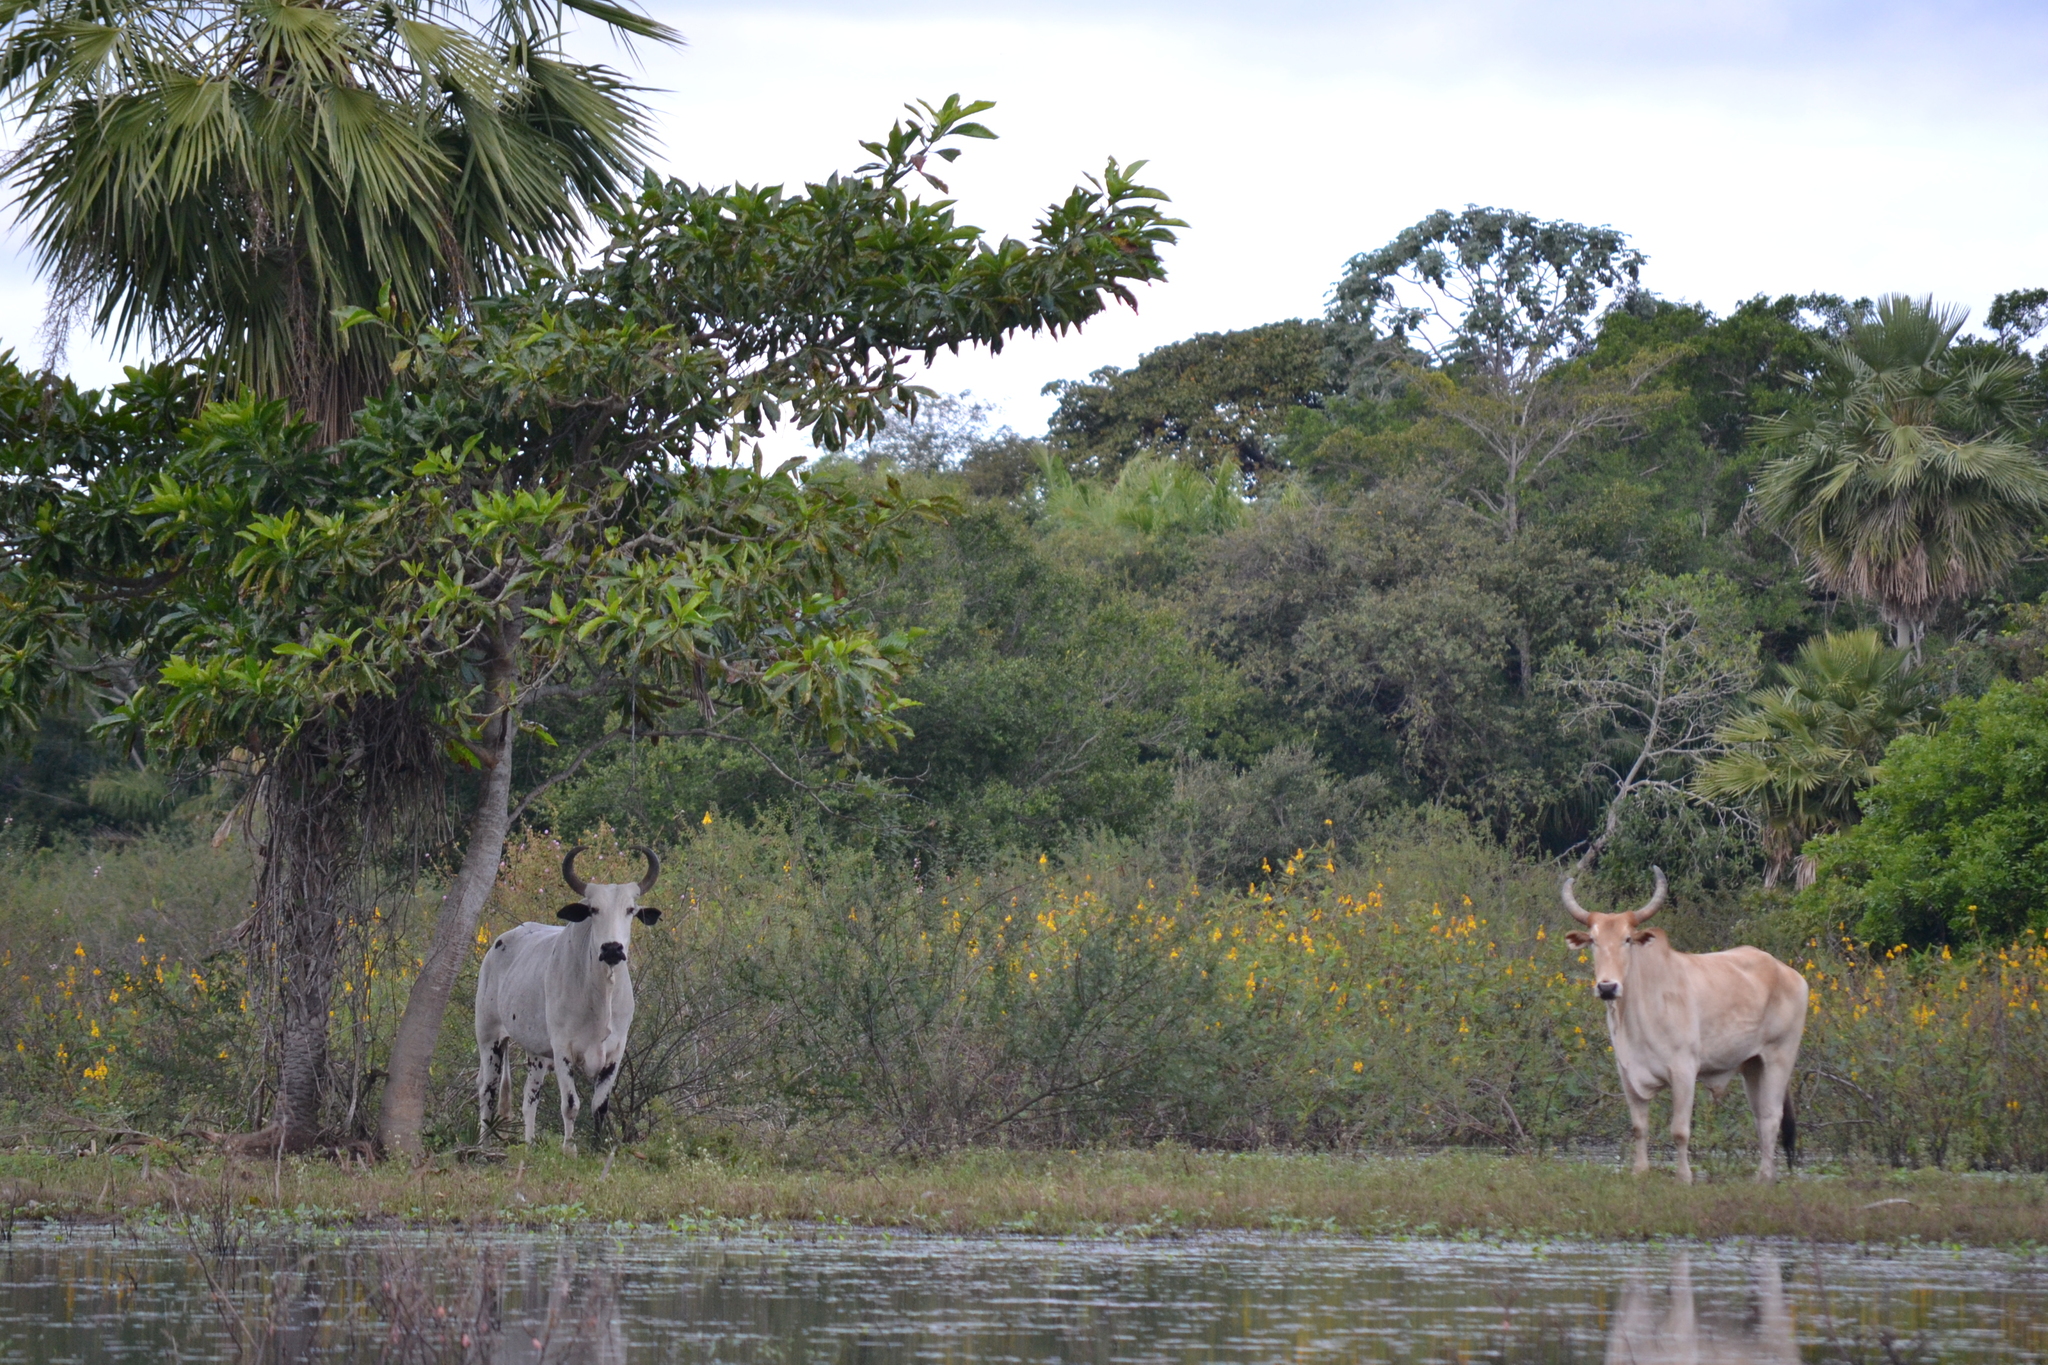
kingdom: Animalia
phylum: Chordata
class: Mammalia
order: Artiodactyla
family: Bovidae
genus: Bos
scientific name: Bos taurus
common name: Domesticated cattle
